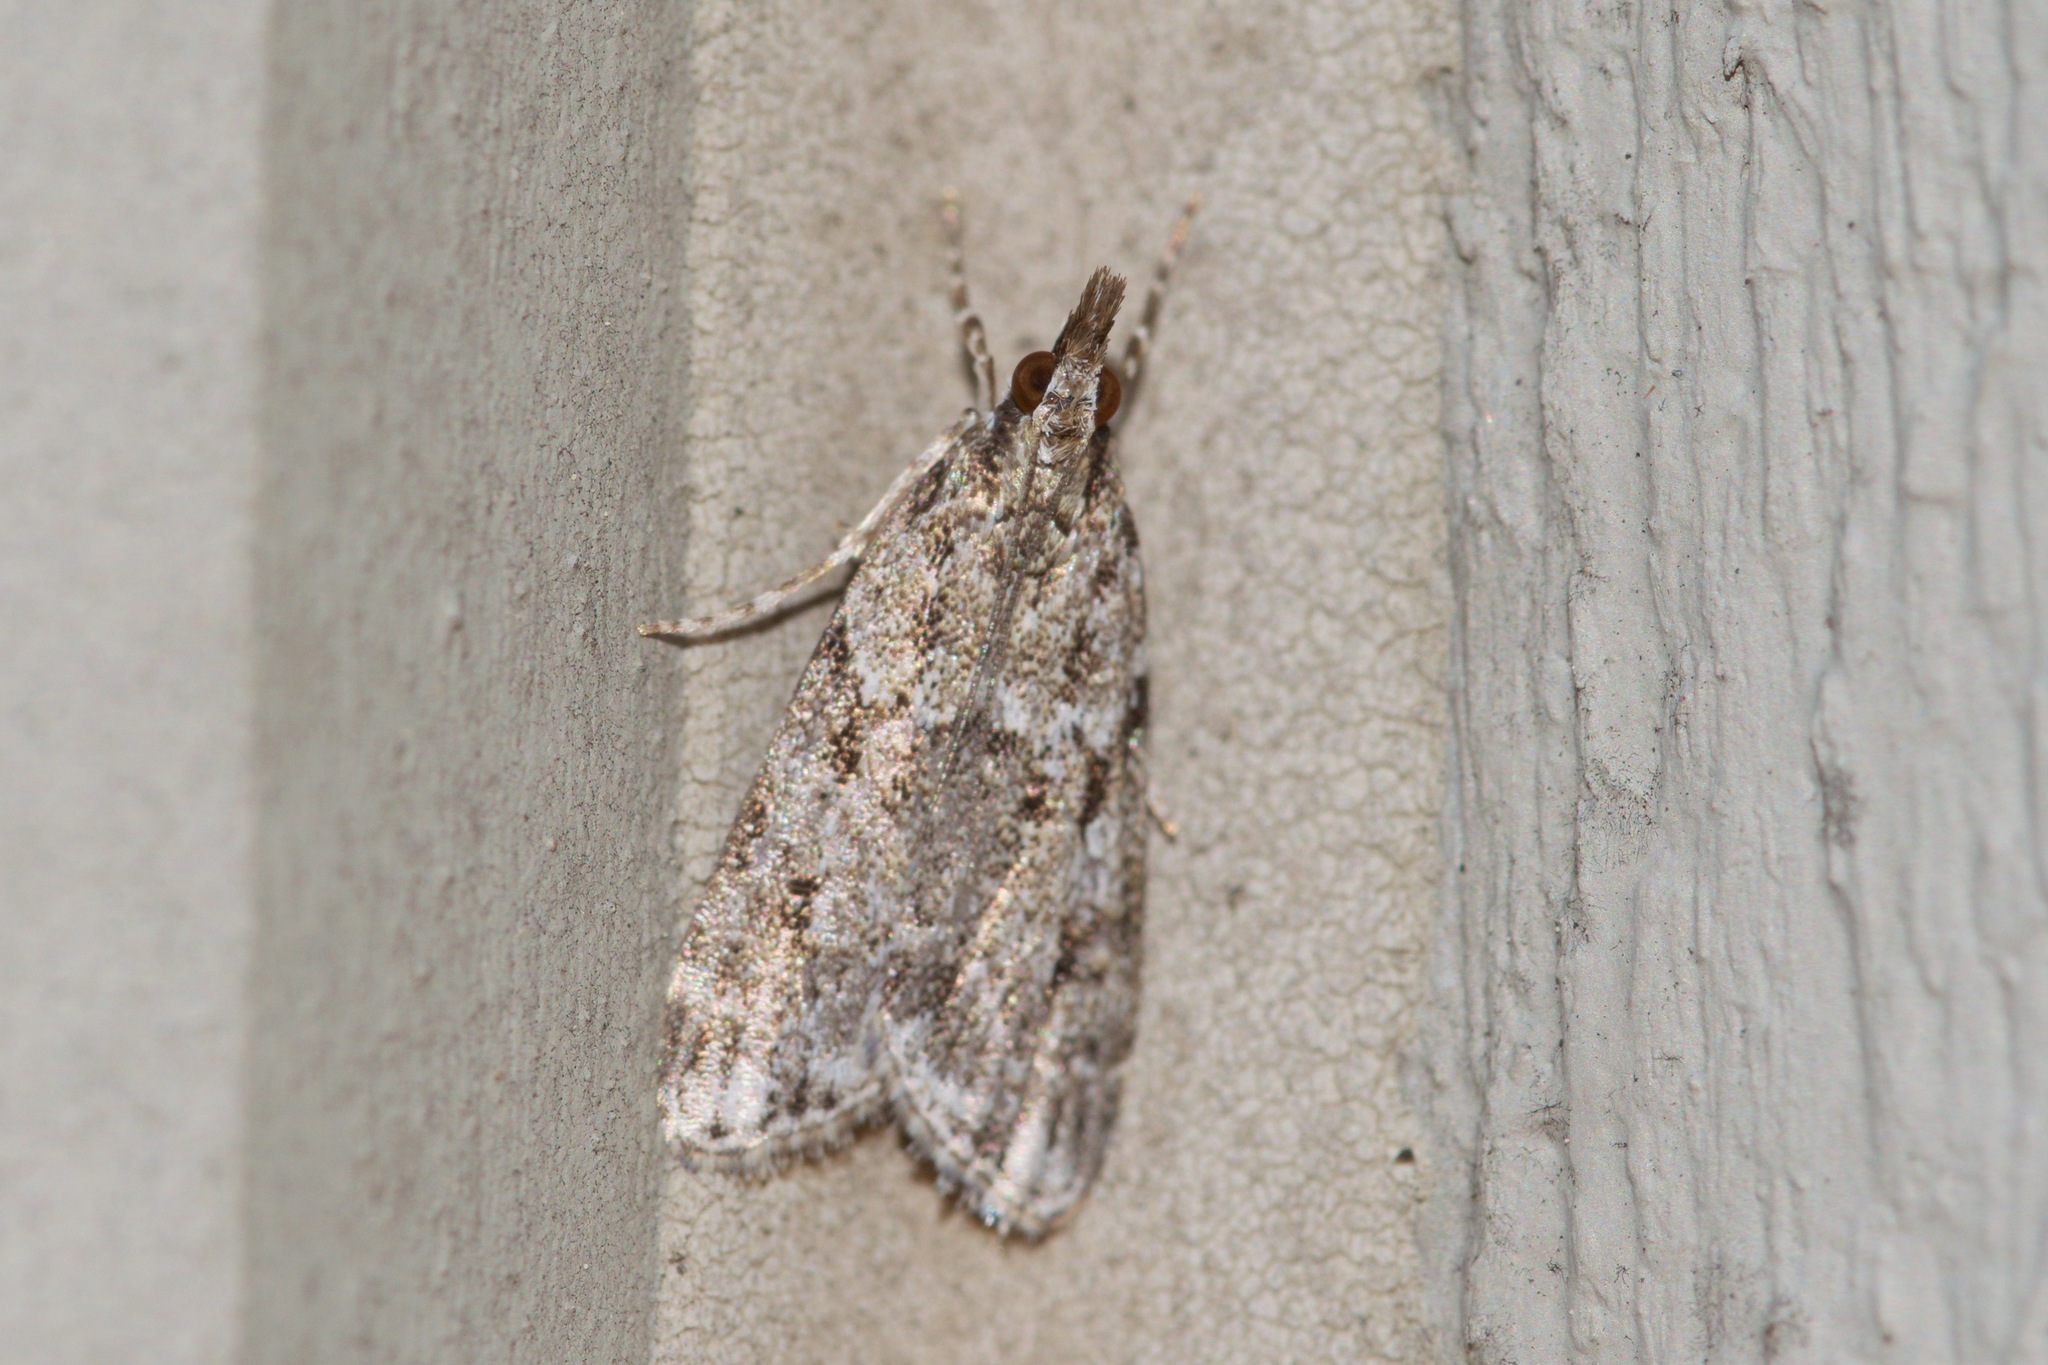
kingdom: Animalia
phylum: Arthropoda
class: Insecta
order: Lepidoptera
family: Crambidae
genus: Scoparia
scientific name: Scoparia basalis
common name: Many-spotted scoparia moth
